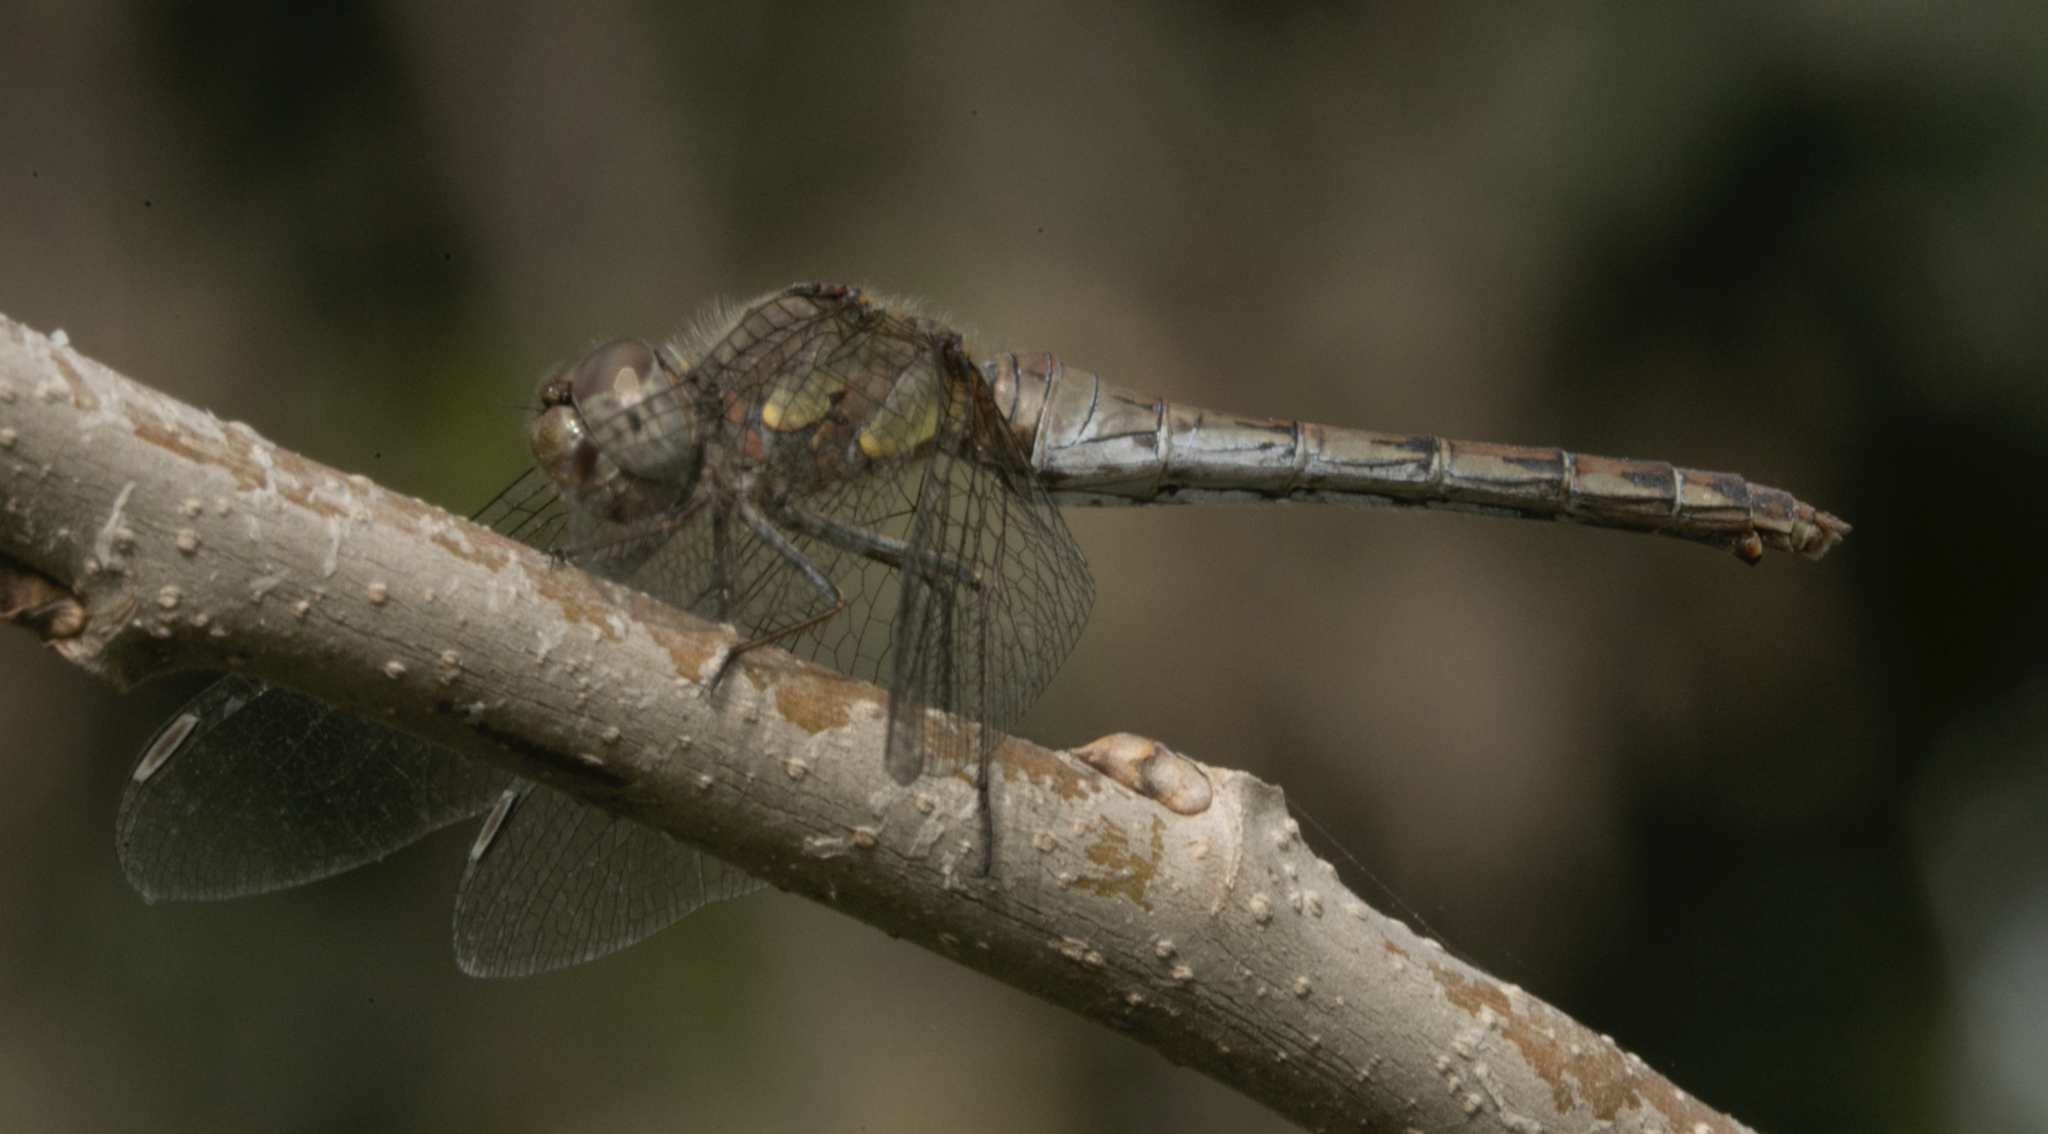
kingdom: Animalia
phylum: Arthropoda
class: Insecta
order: Odonata
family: Libellulidae
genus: Sympetrum
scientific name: Sympetrum striolatum
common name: Common darter
